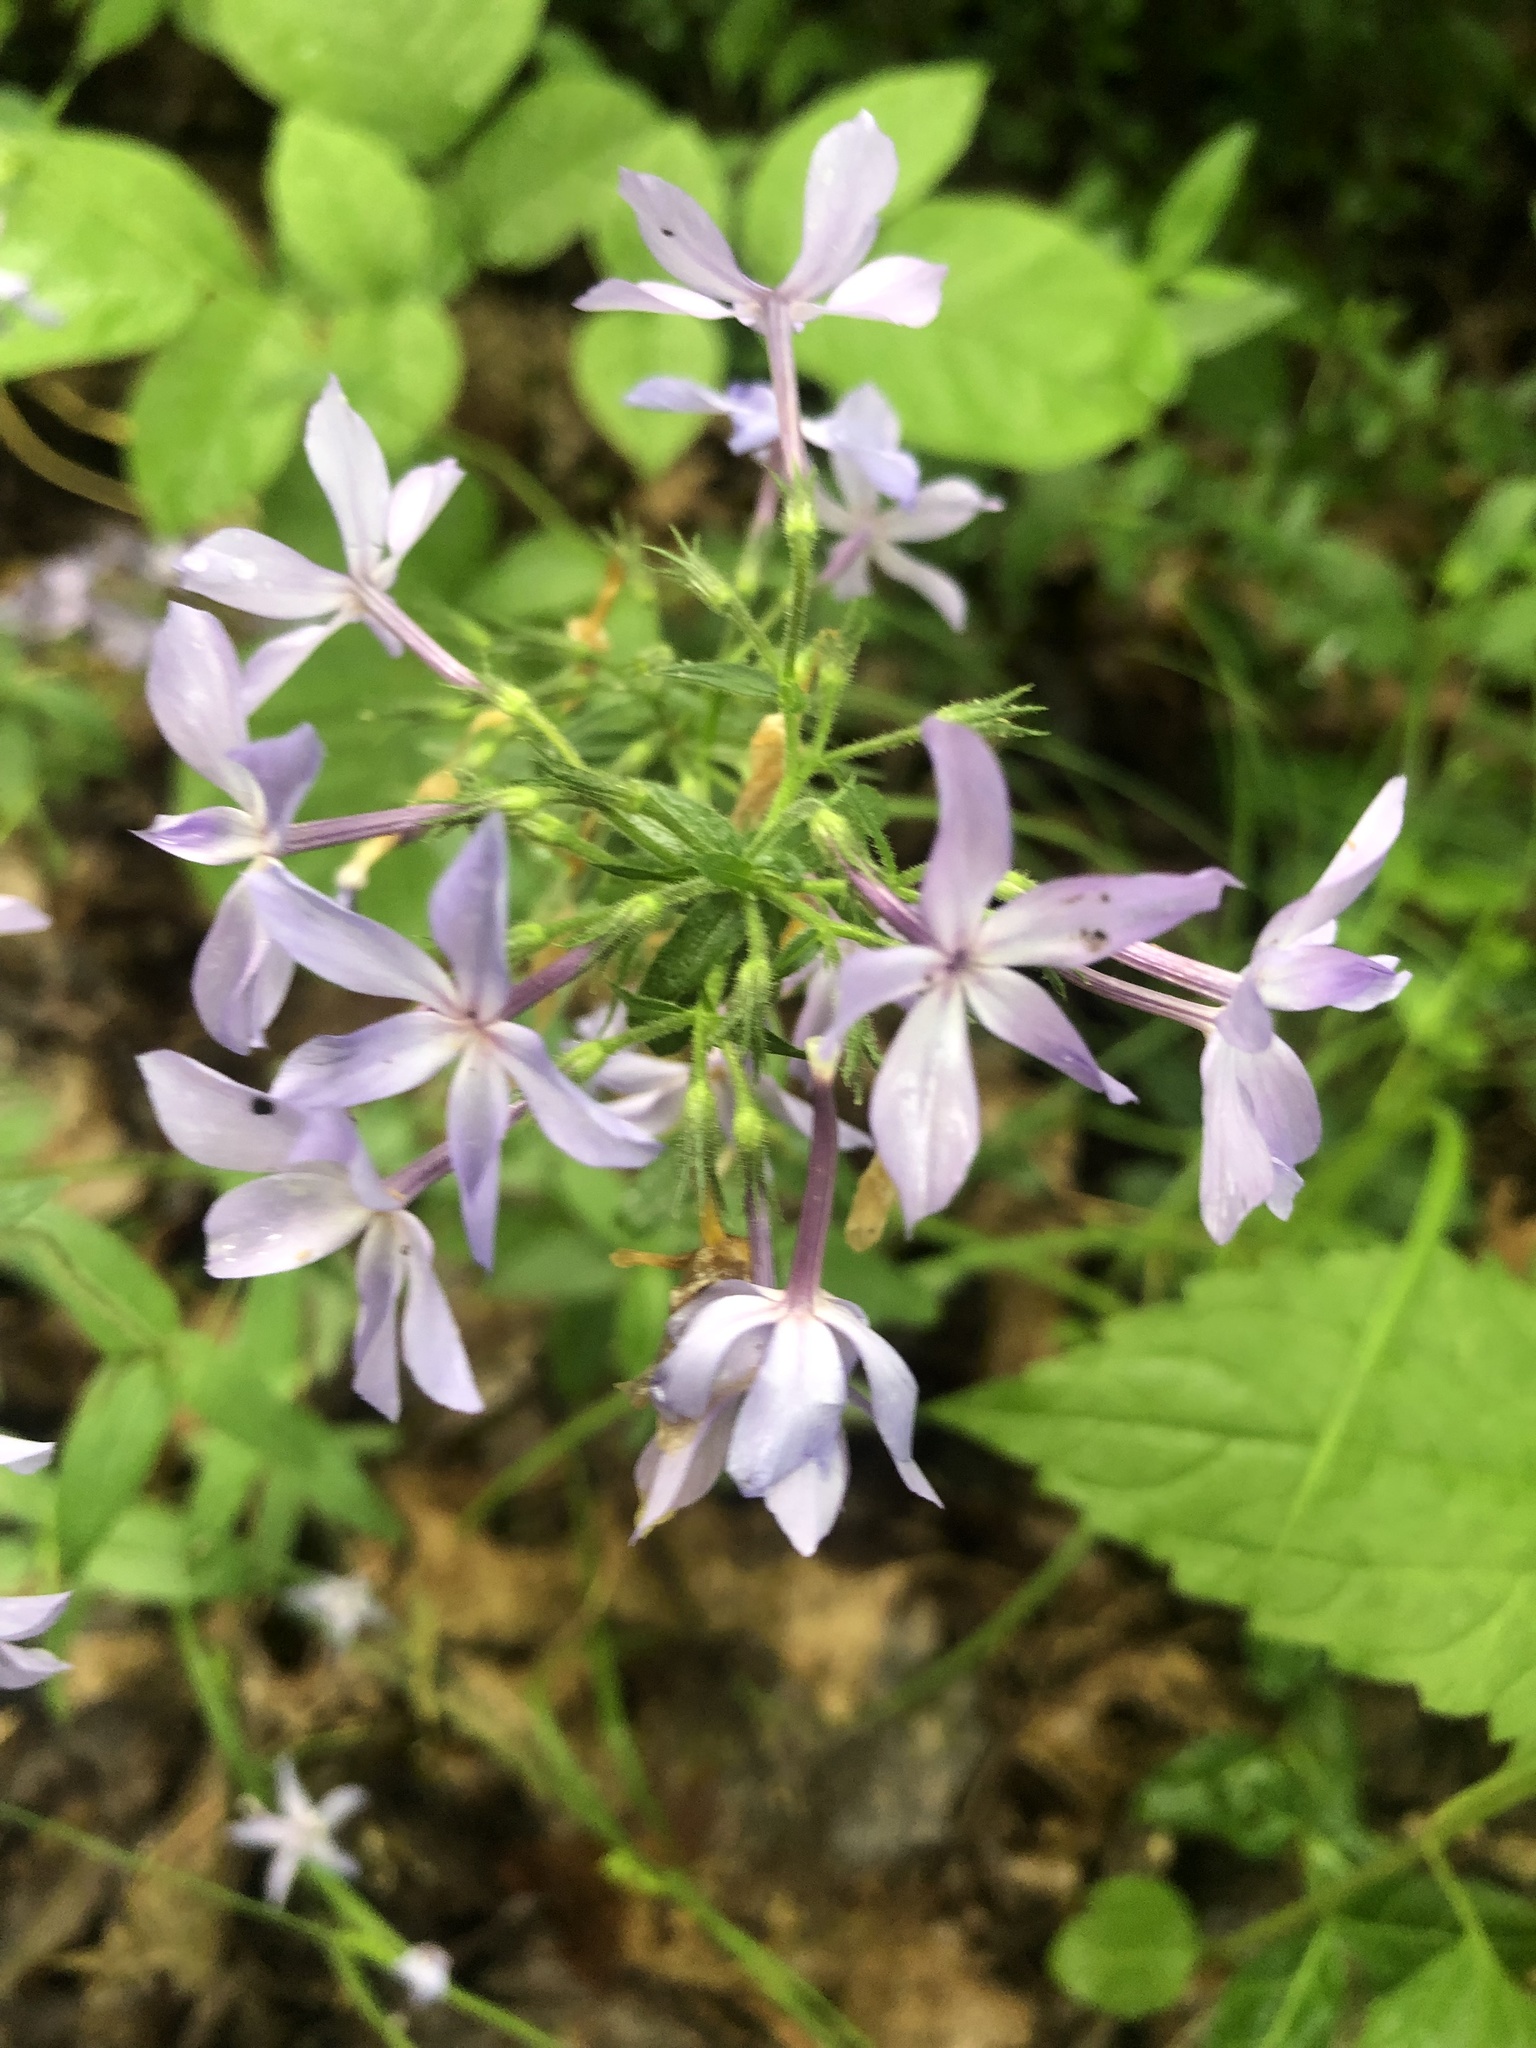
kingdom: Plantae
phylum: Tracheophyta
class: Magnoliopsida
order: Ericales
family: Polemoniaceae
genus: Phlox
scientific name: Phlox divaricata
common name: Blue phlox
